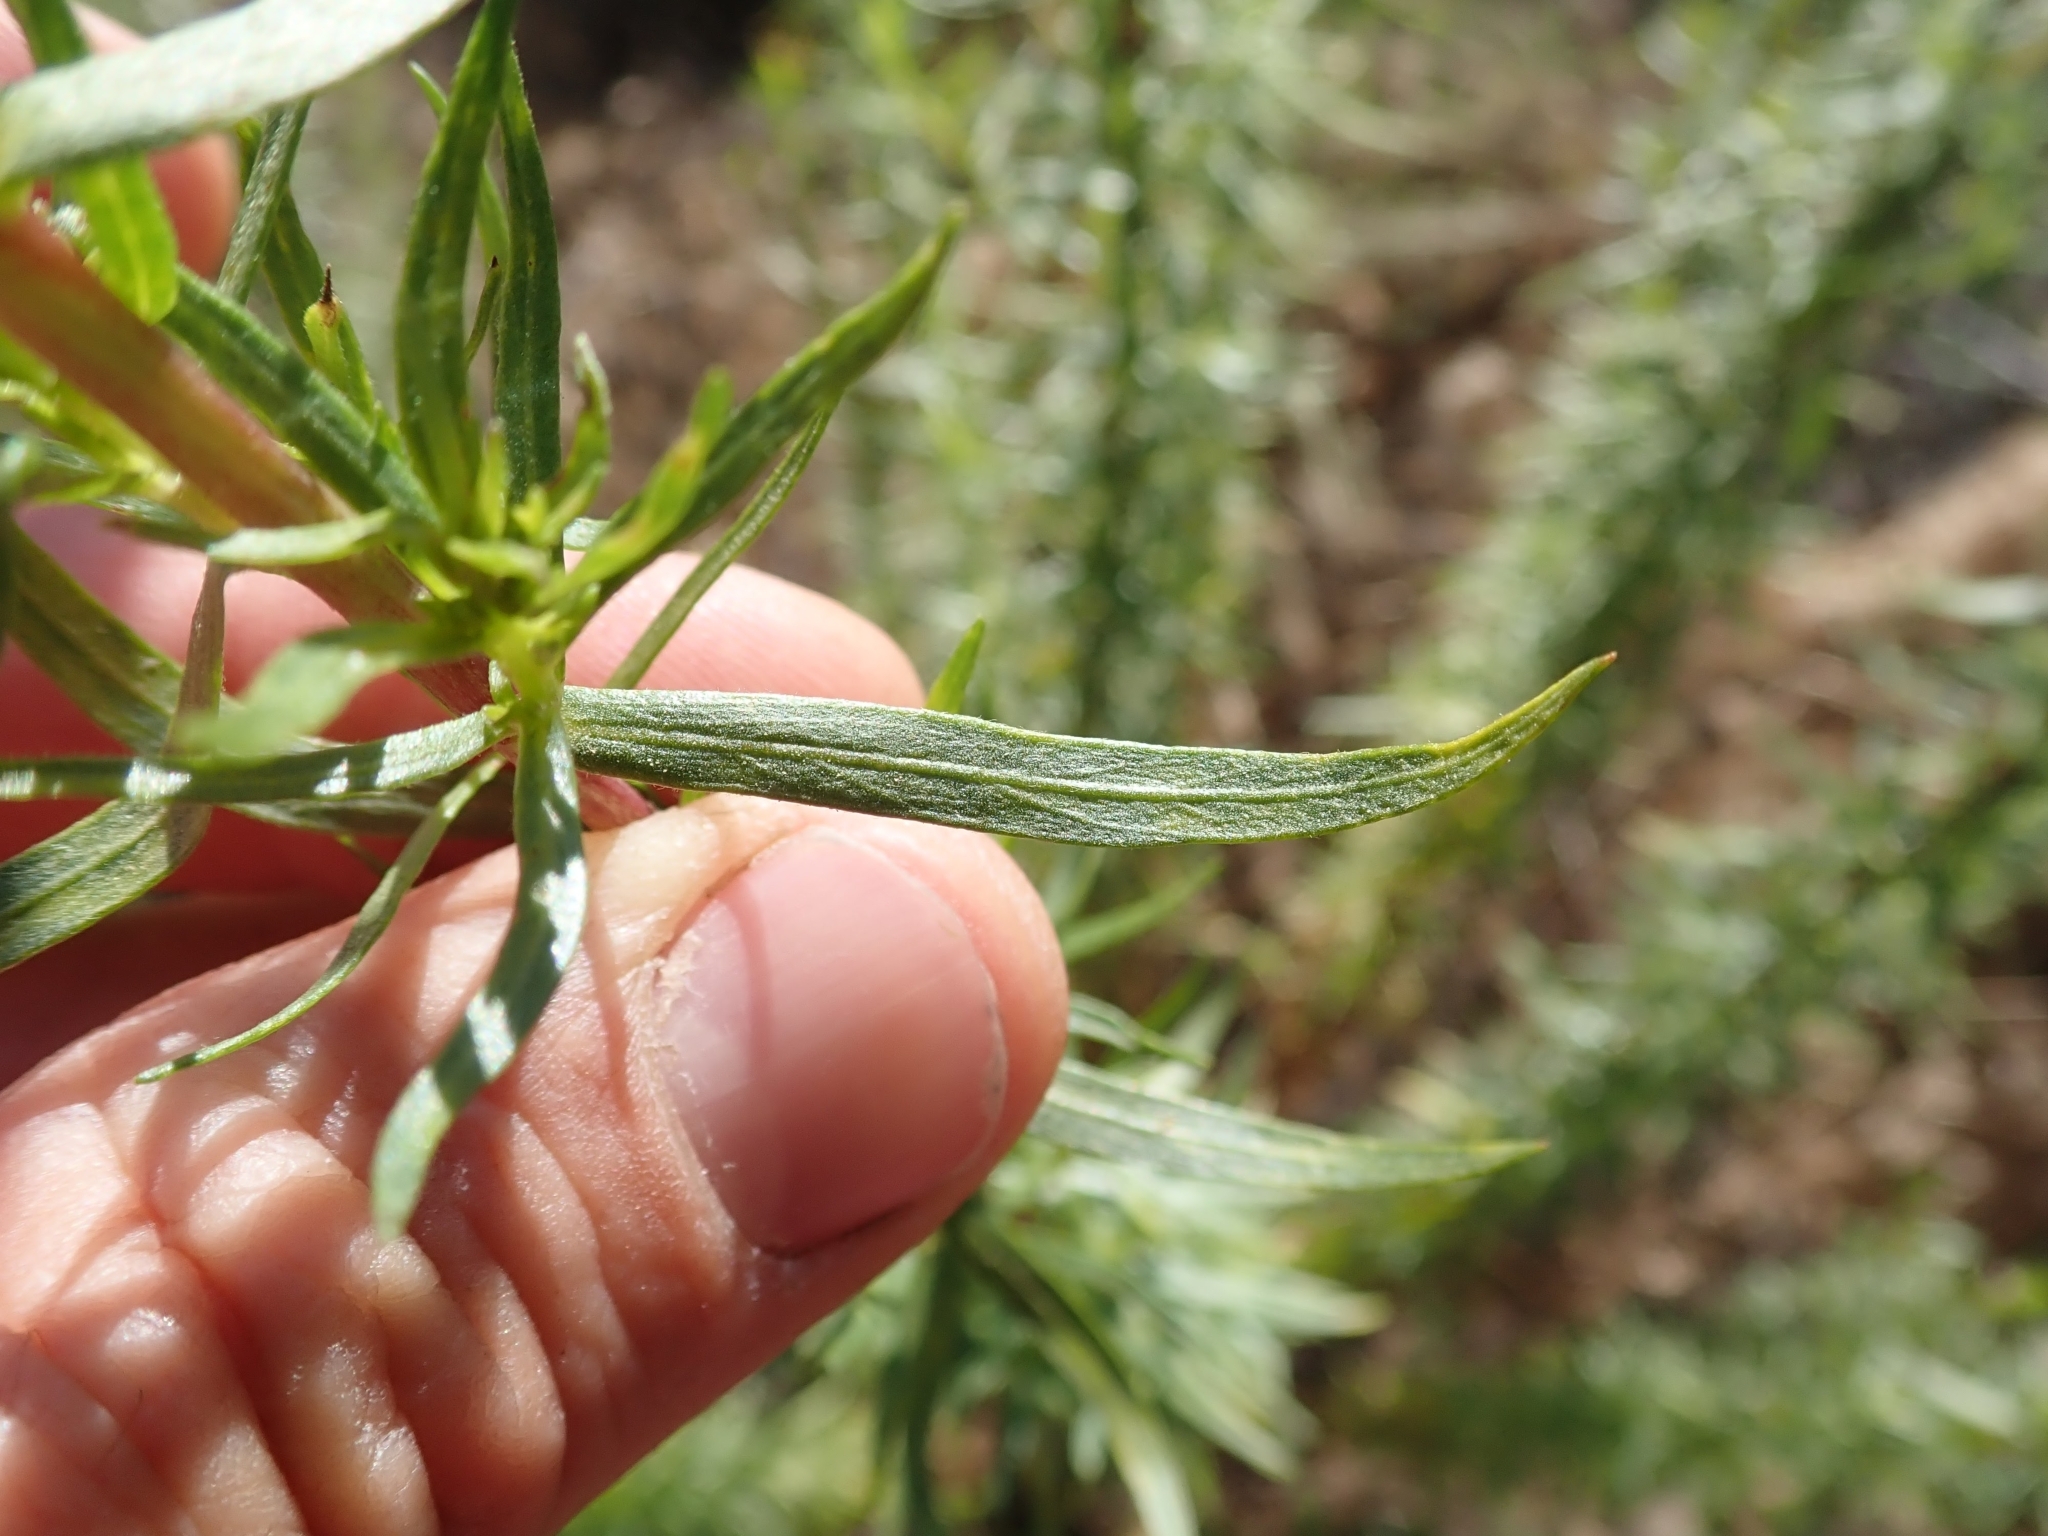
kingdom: Plantae
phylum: Tracheophyta
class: Magnoliopsida
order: Asterales
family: Asteraceae
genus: Euthamia
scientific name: Euthamia occidentalis
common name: Western goldentop
